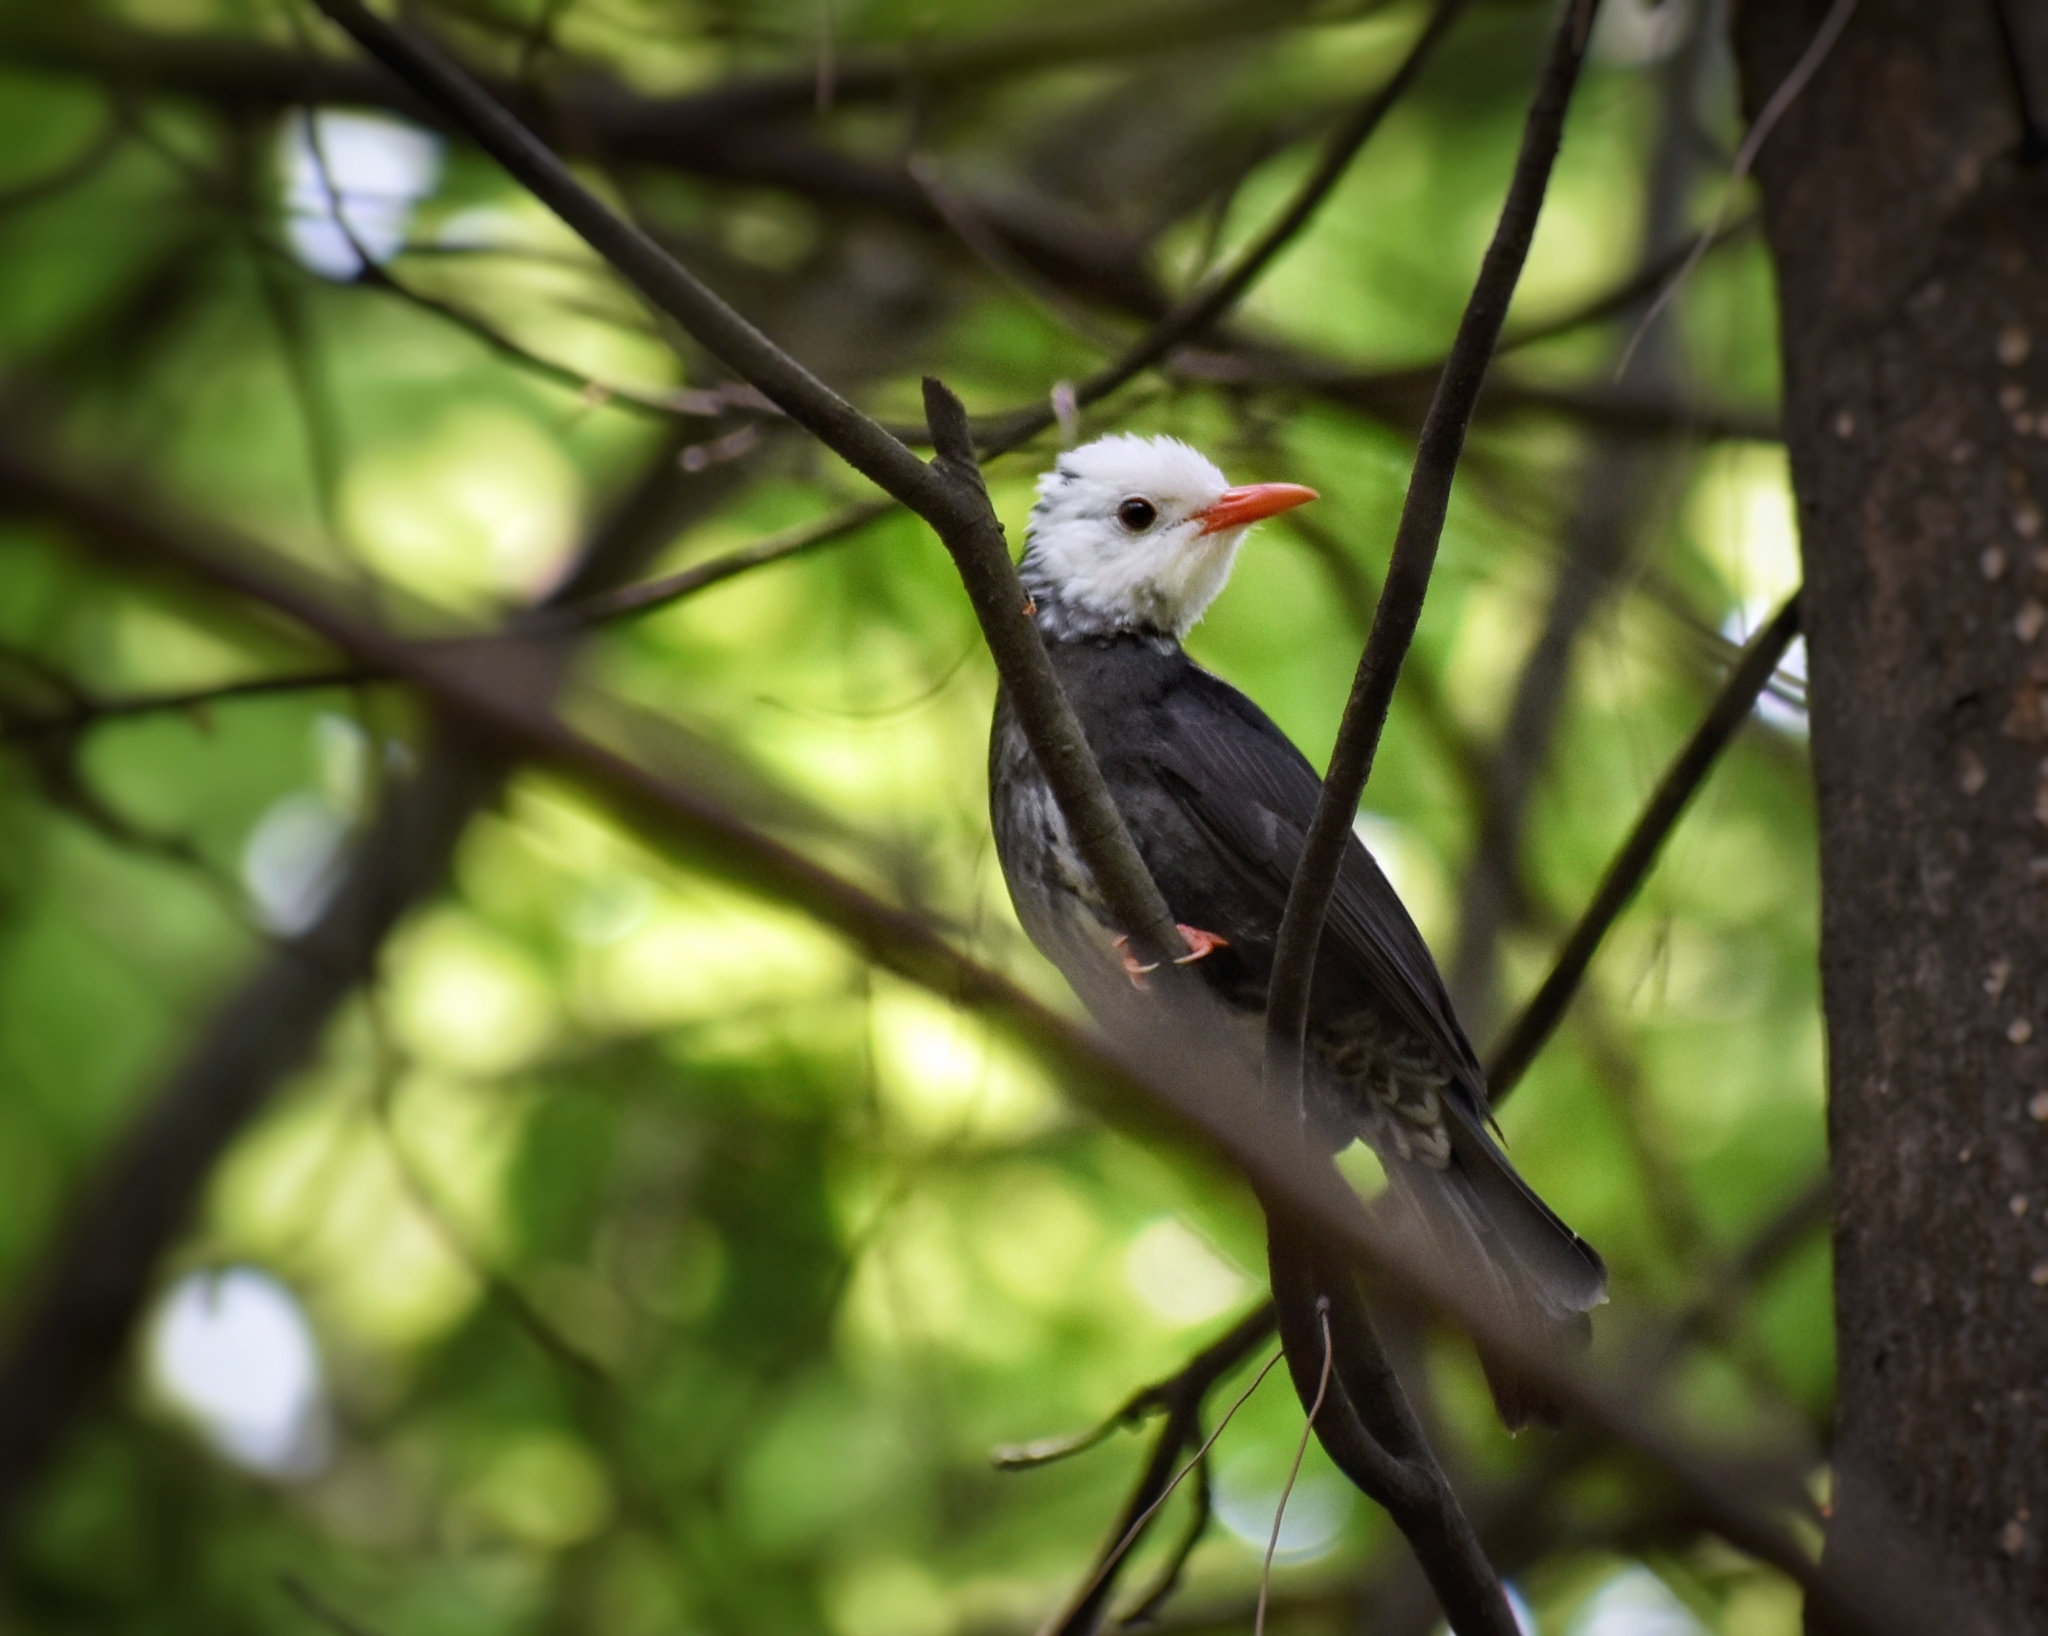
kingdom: Animalia
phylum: Chordata
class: Aves
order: Passeriformes
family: Pycnonotidae
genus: Hypsipetes
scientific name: Hypsipetes leucocephalus
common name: Black bulbul
